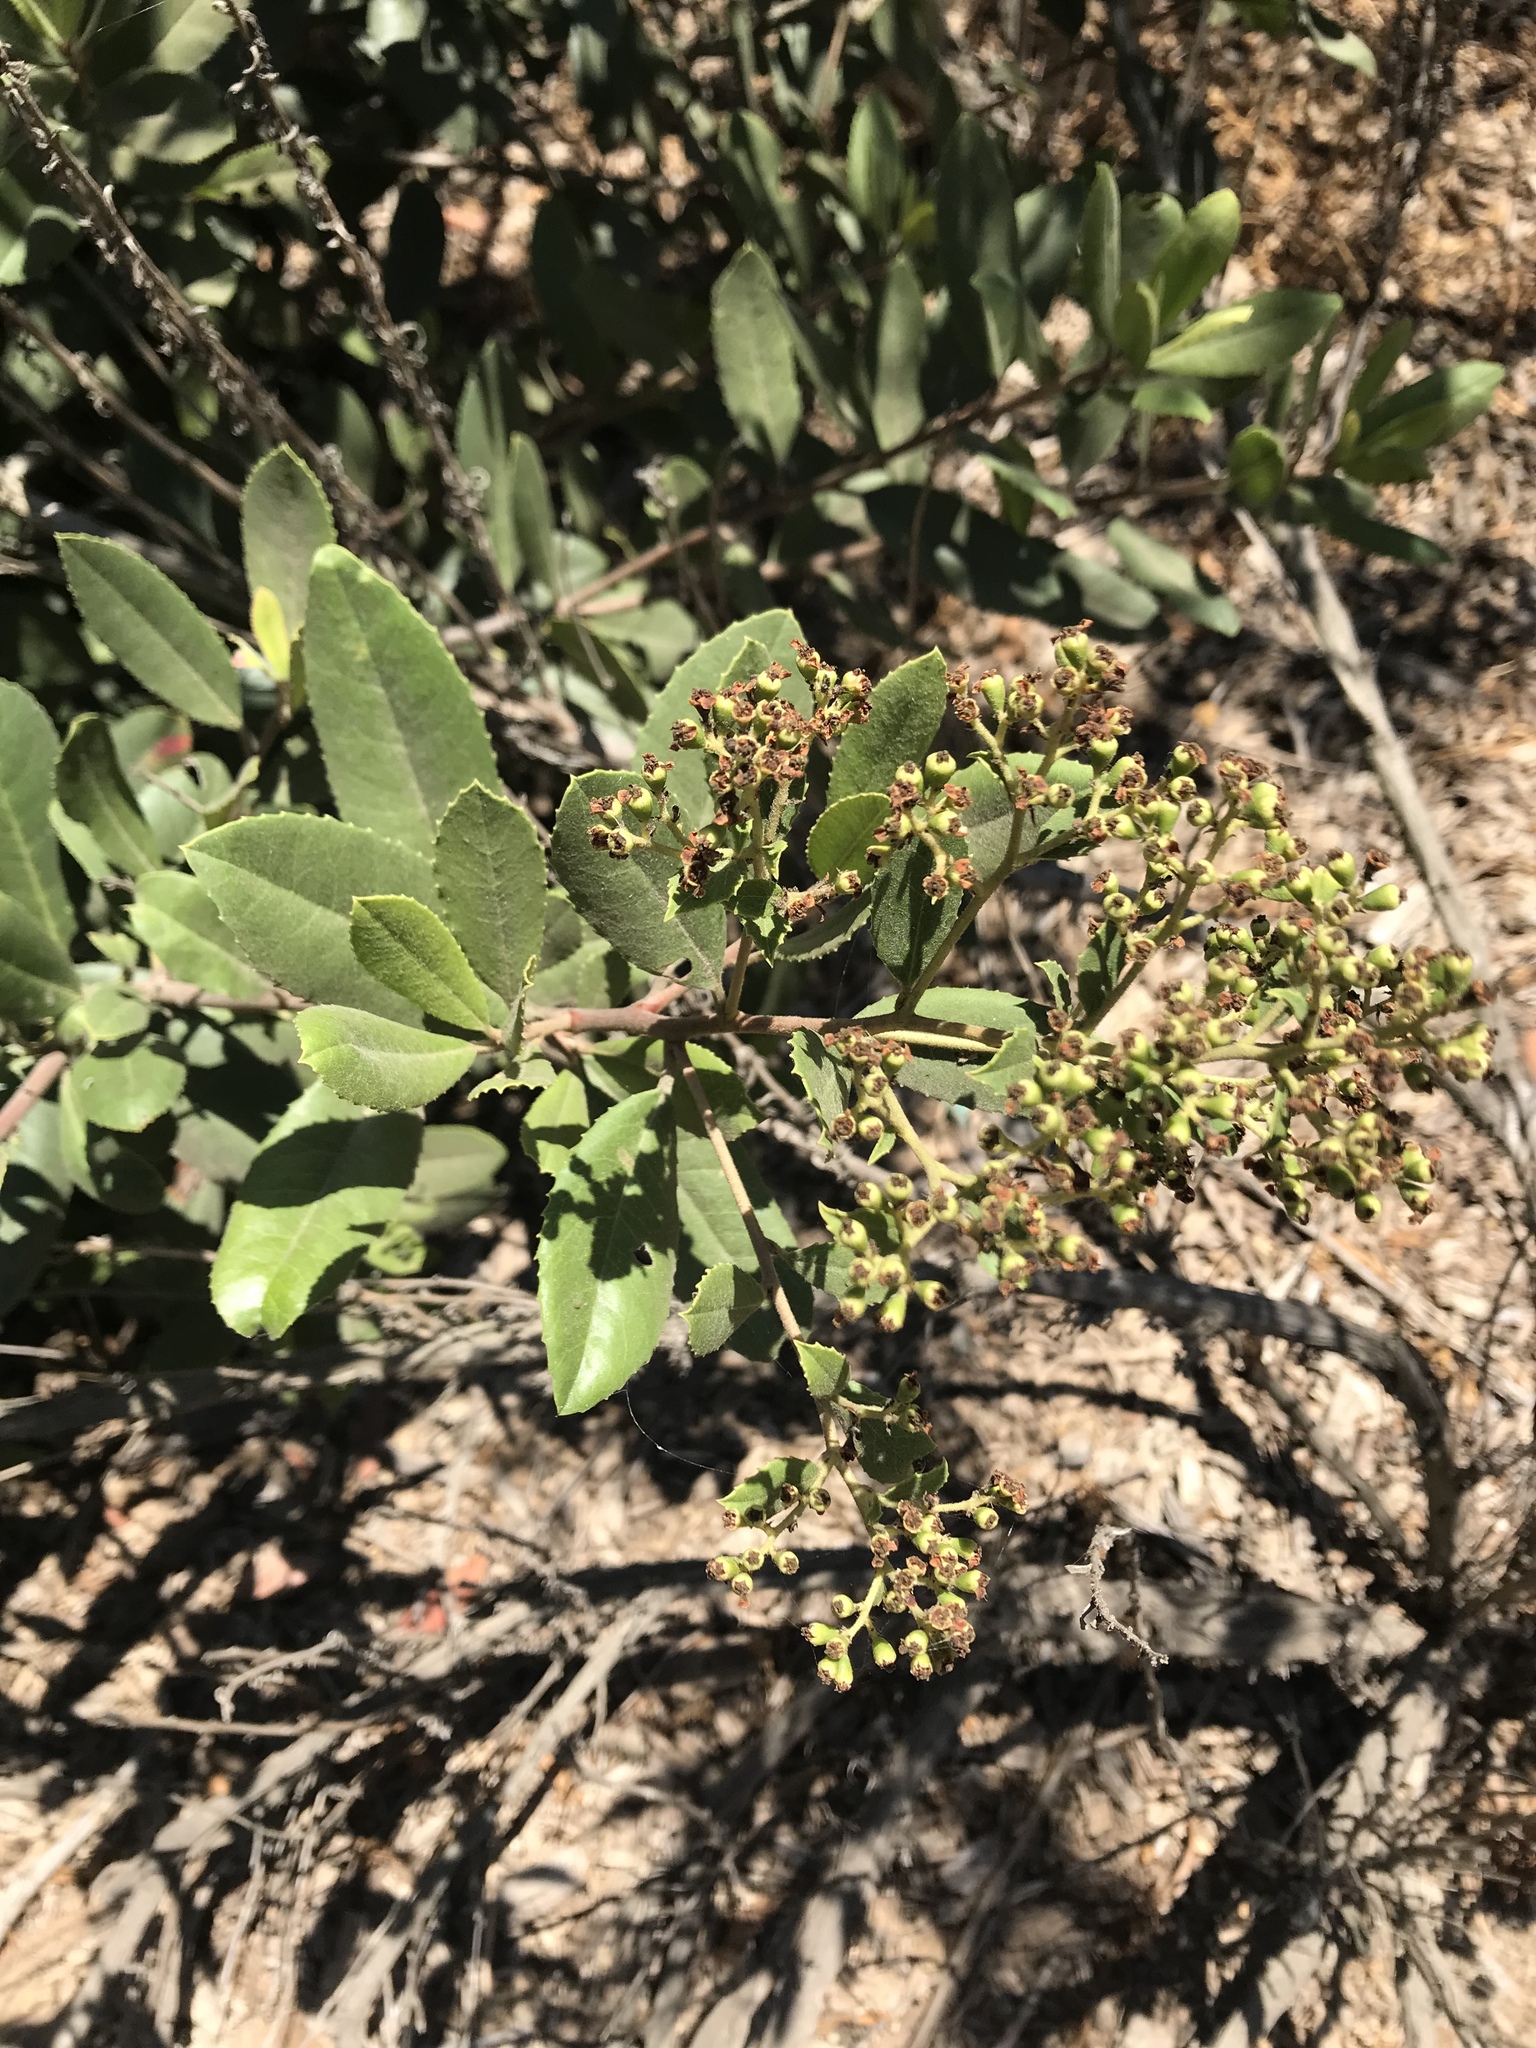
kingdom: Plantae
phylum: Tracheophyta
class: Magnoliopsida
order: Rosales
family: Rosaceae
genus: Heteromeles
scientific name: Heteromeles arbutifolia
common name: California-holly
